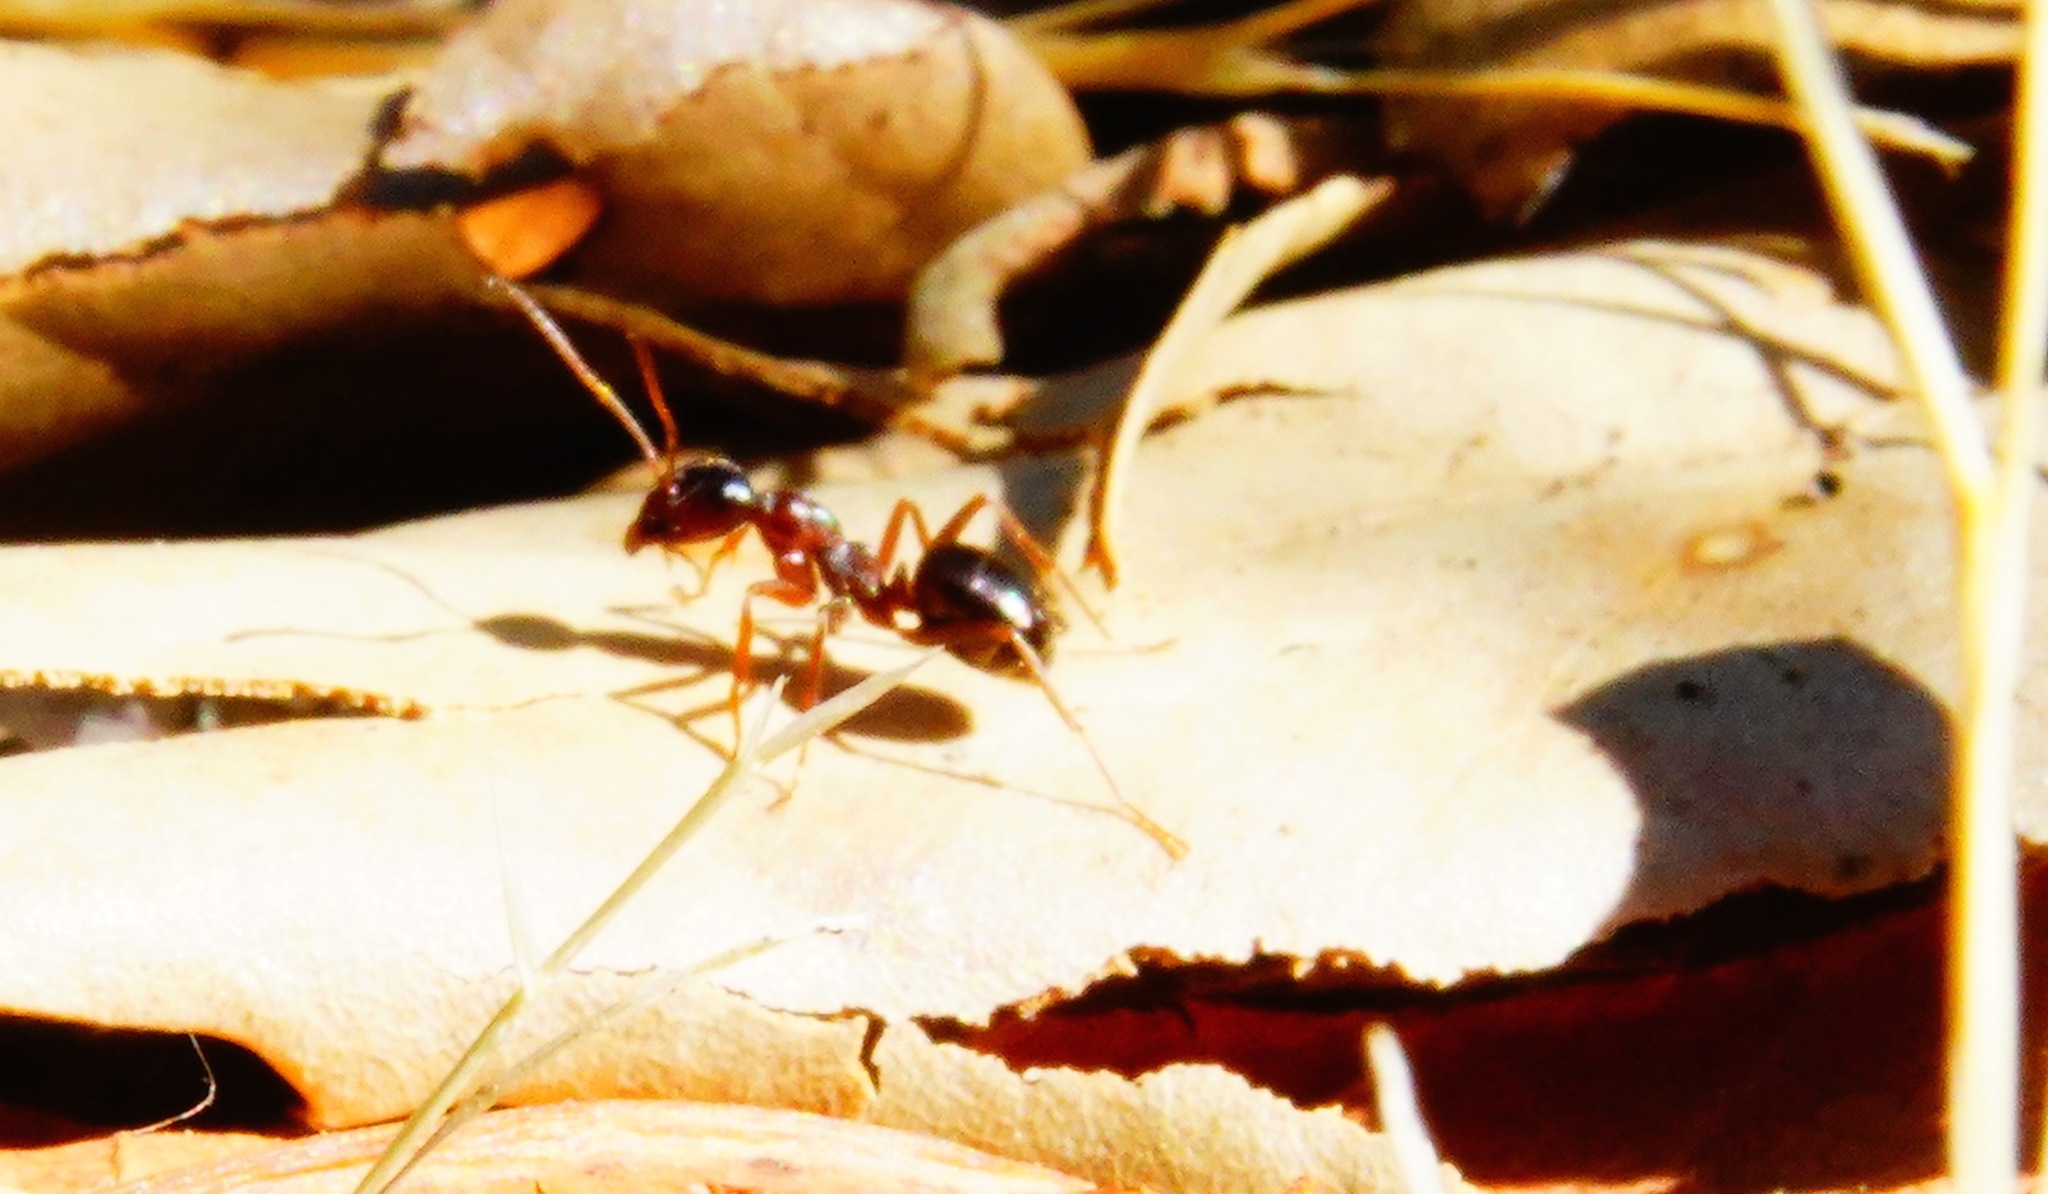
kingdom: Animalia
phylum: Arthropoda
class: Insecta
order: Hymenoptera
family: Formicidae
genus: Camponotus
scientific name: Camponotus vicinus
